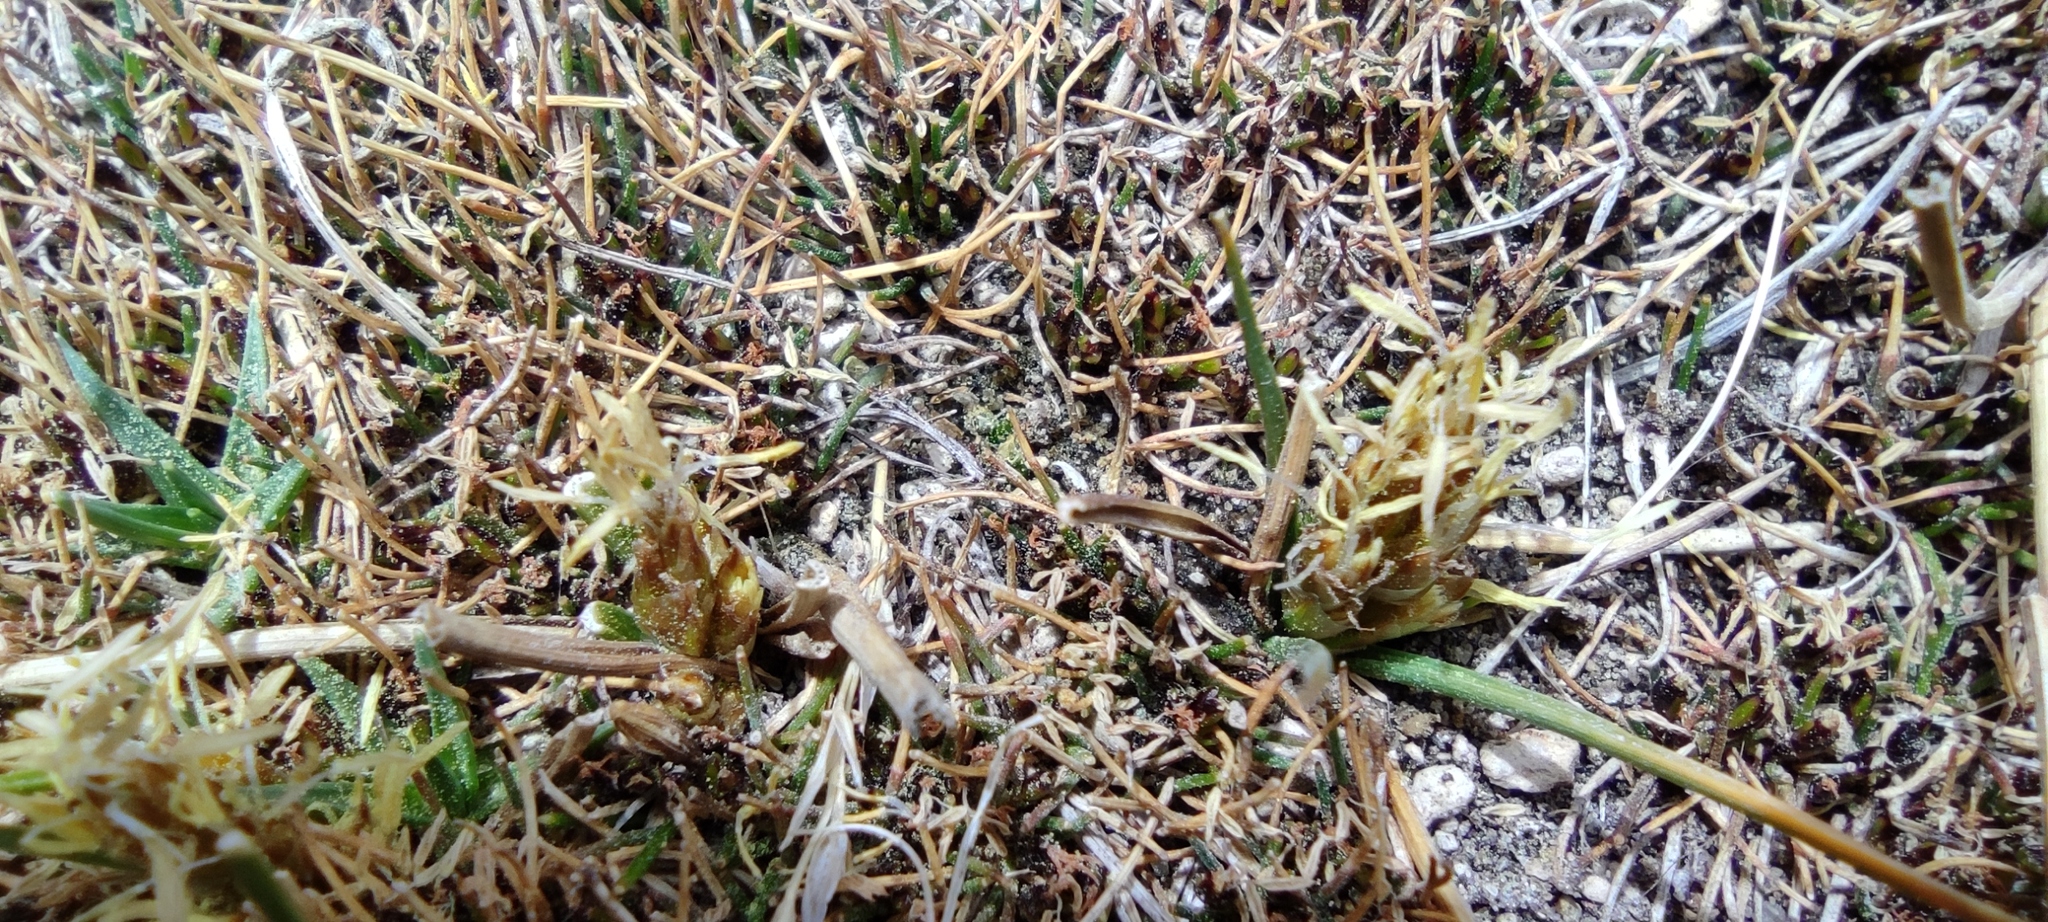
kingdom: Plantae
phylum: Tracheophyta
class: Liliopsida
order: Poales
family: Cyperaceae
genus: Carex
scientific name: Carex humahuacaensis
